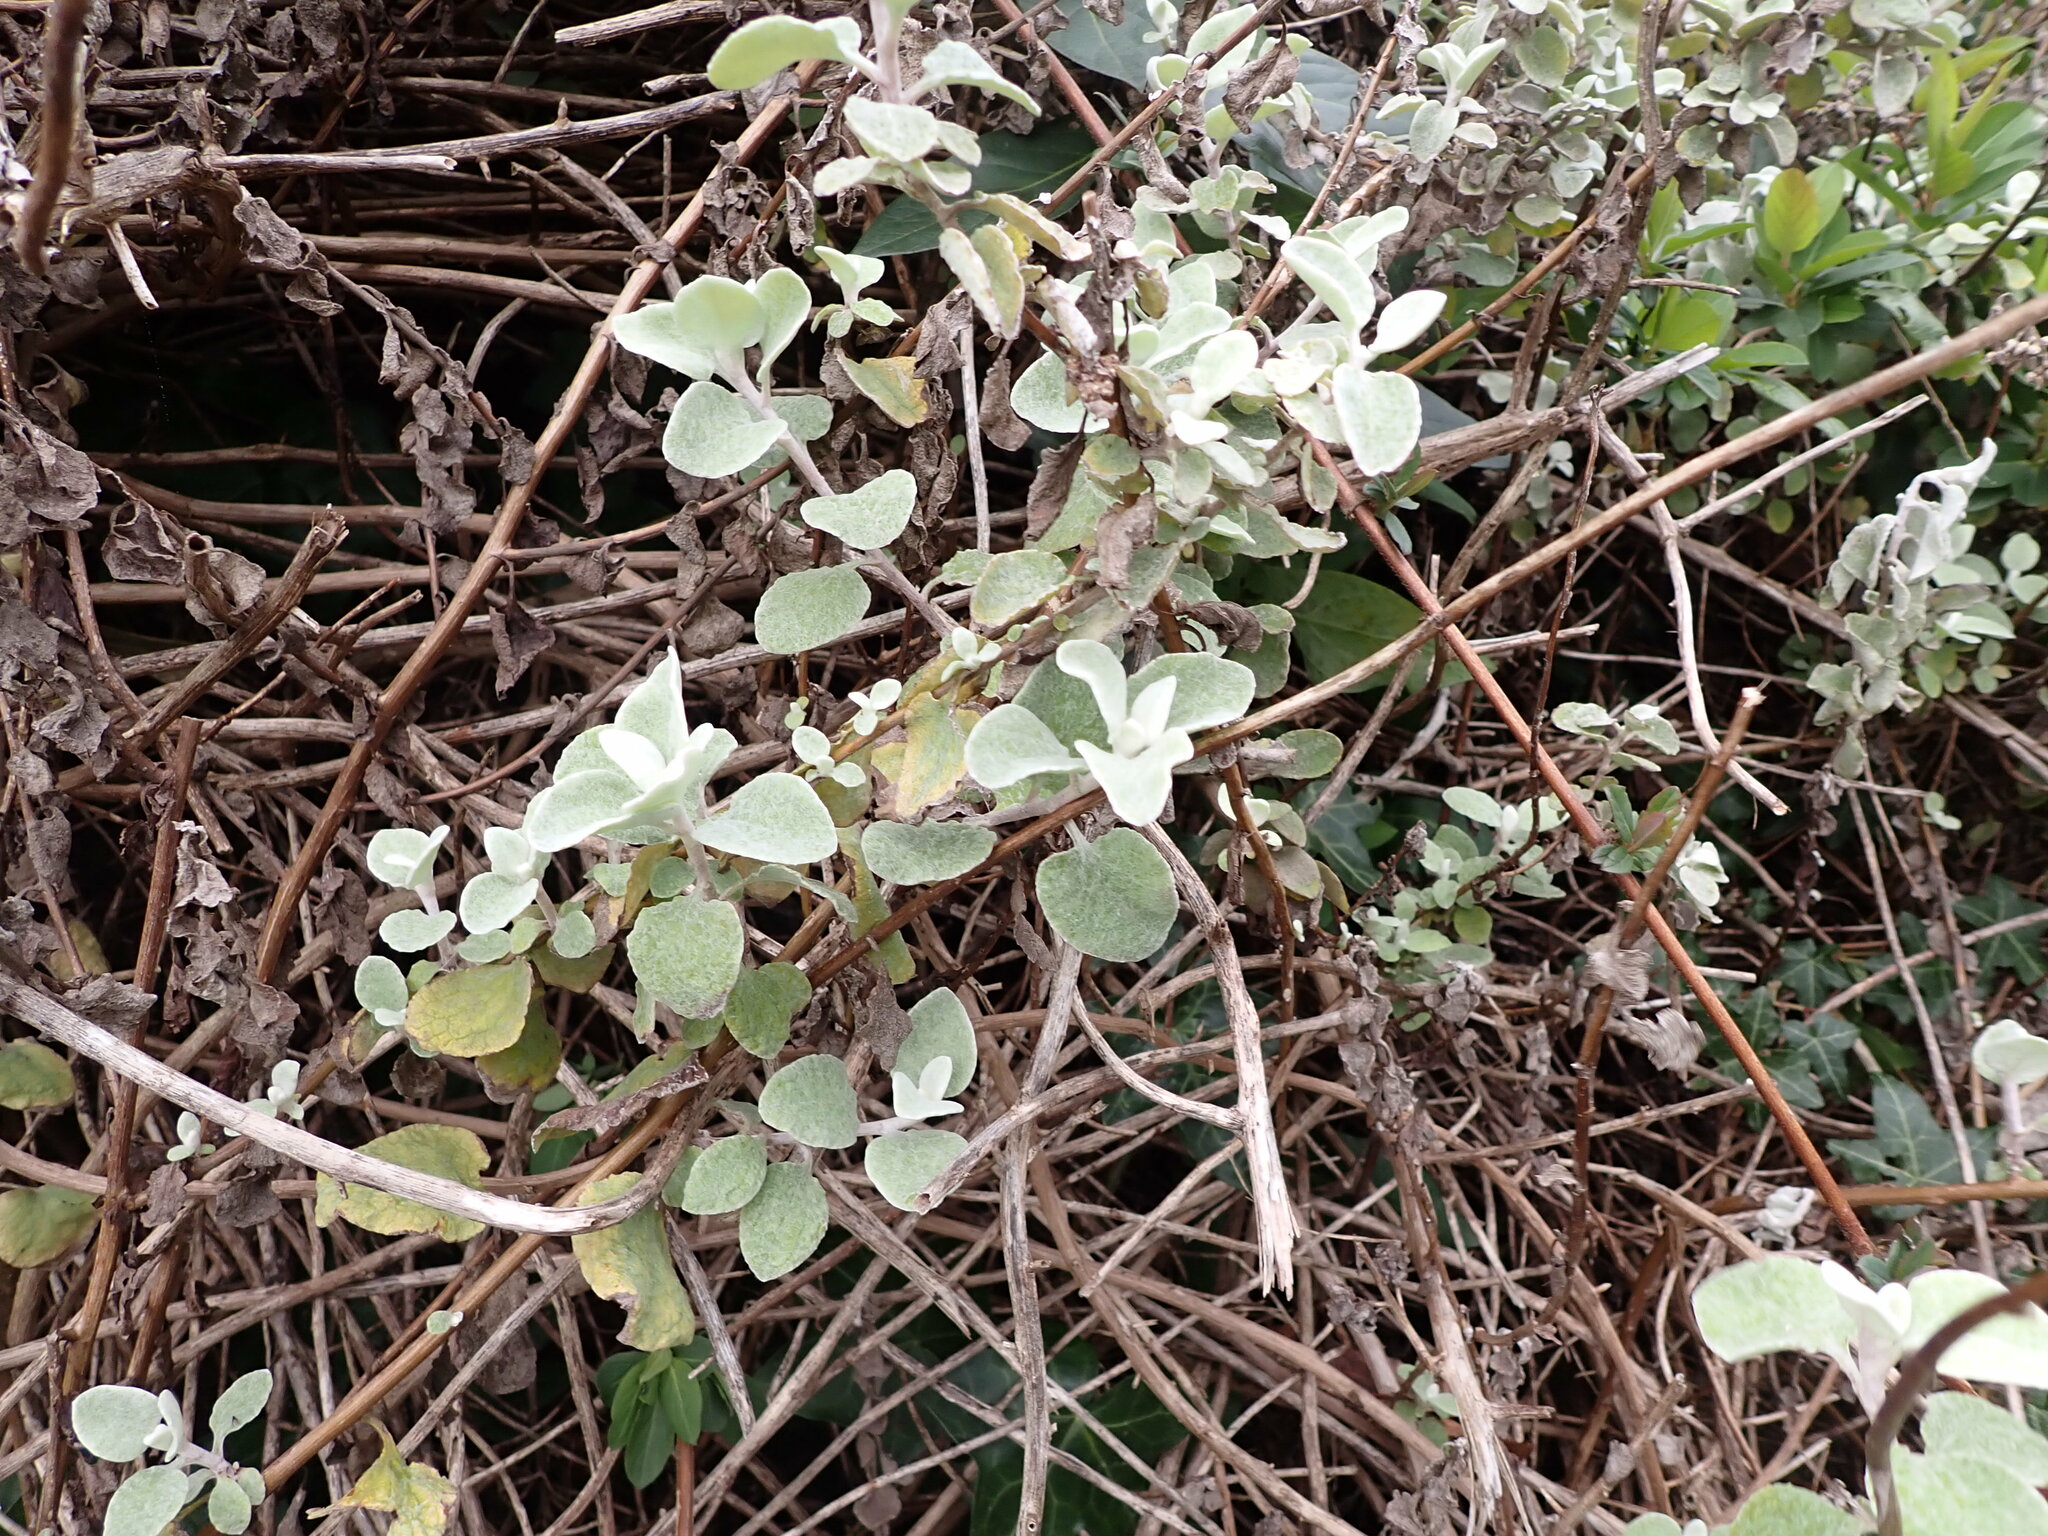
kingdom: Plantae
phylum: Tracheophyta
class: Magnoliopsida
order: Asterales
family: Asteraceae
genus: Helichrysum
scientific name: Helichrysum petiolare
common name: Licorice-plant
